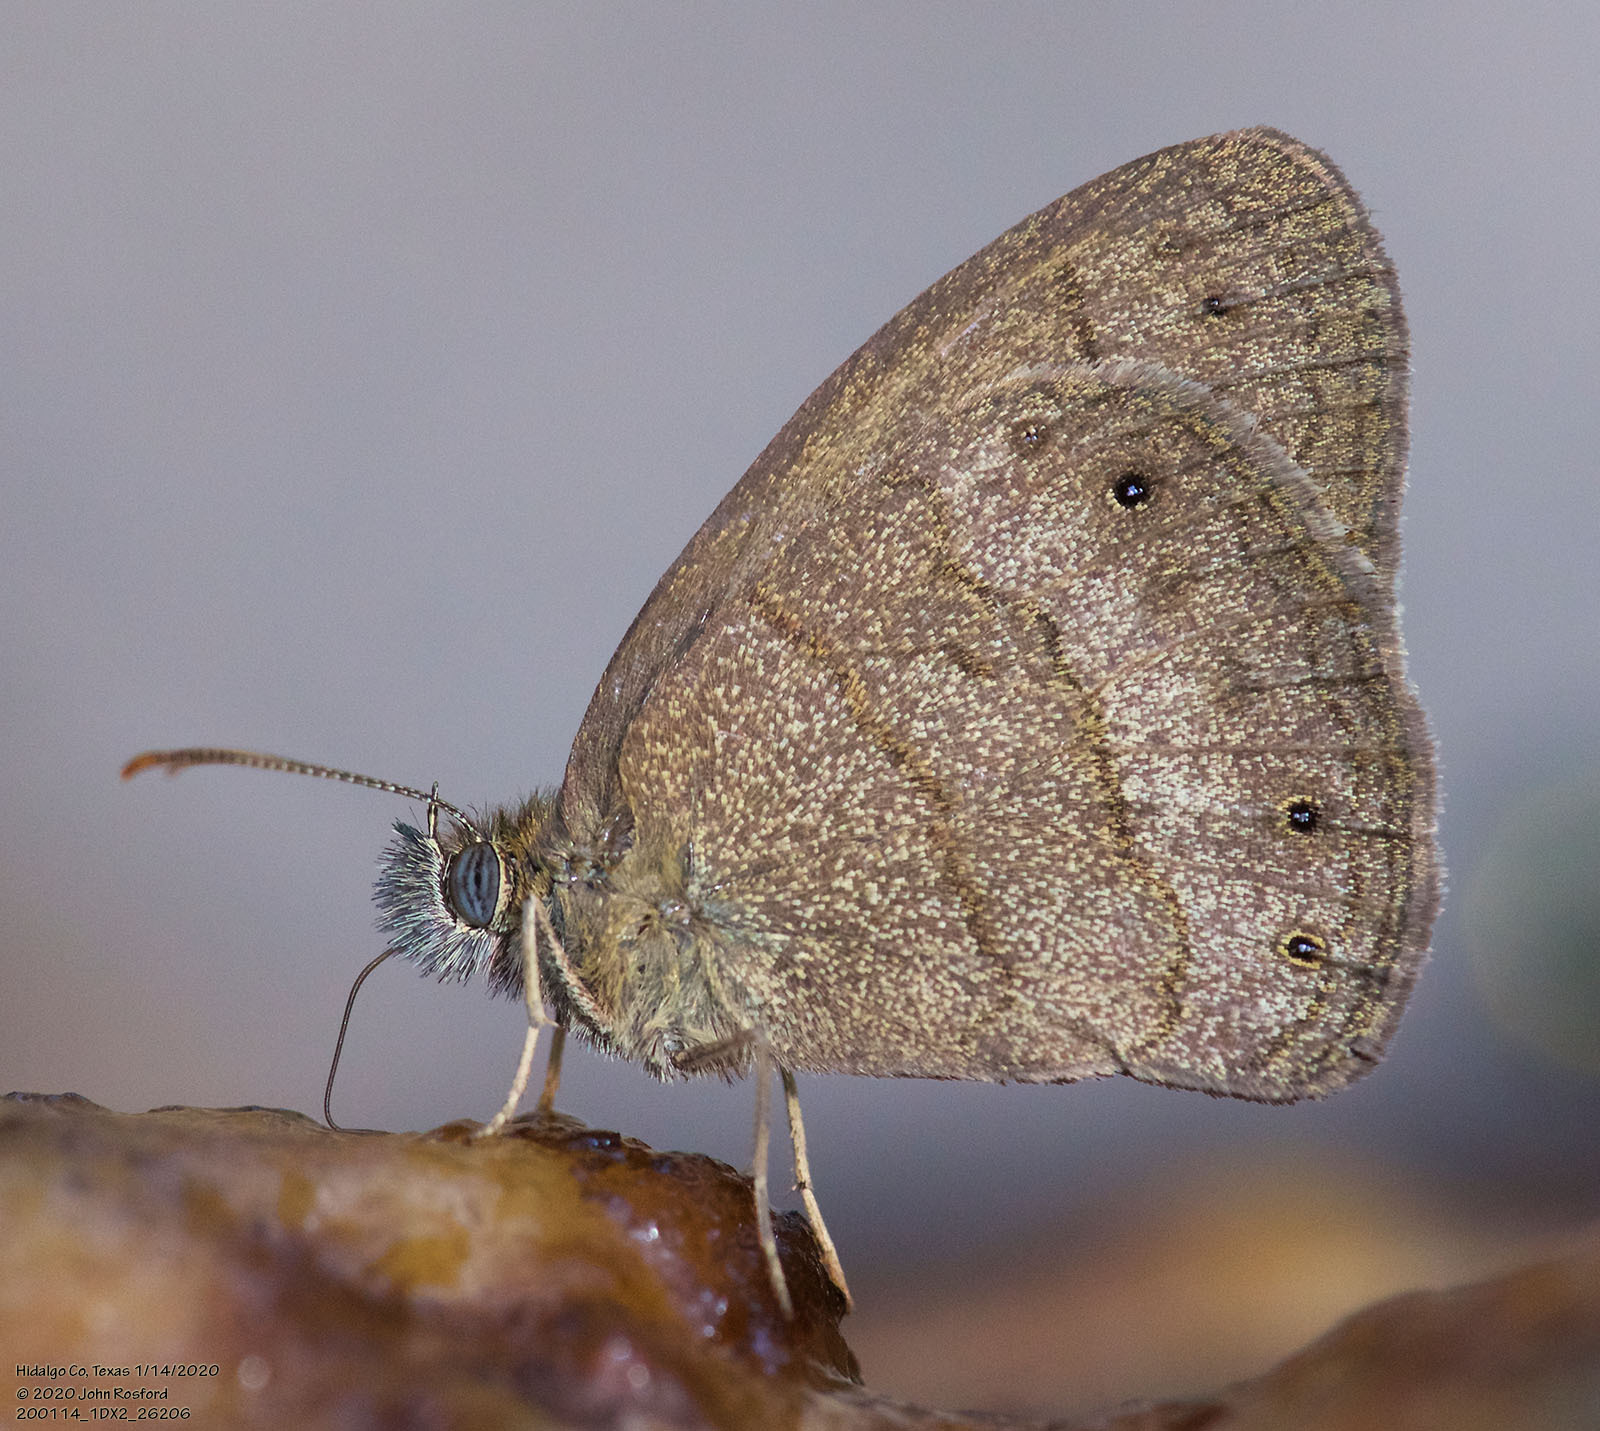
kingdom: Animalia
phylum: Arthropoda
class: Insecta
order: Lepidoptera
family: Nymphalidae
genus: Hermeuptychia
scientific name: Hermeuptychia hermybius
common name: South texas satyr
